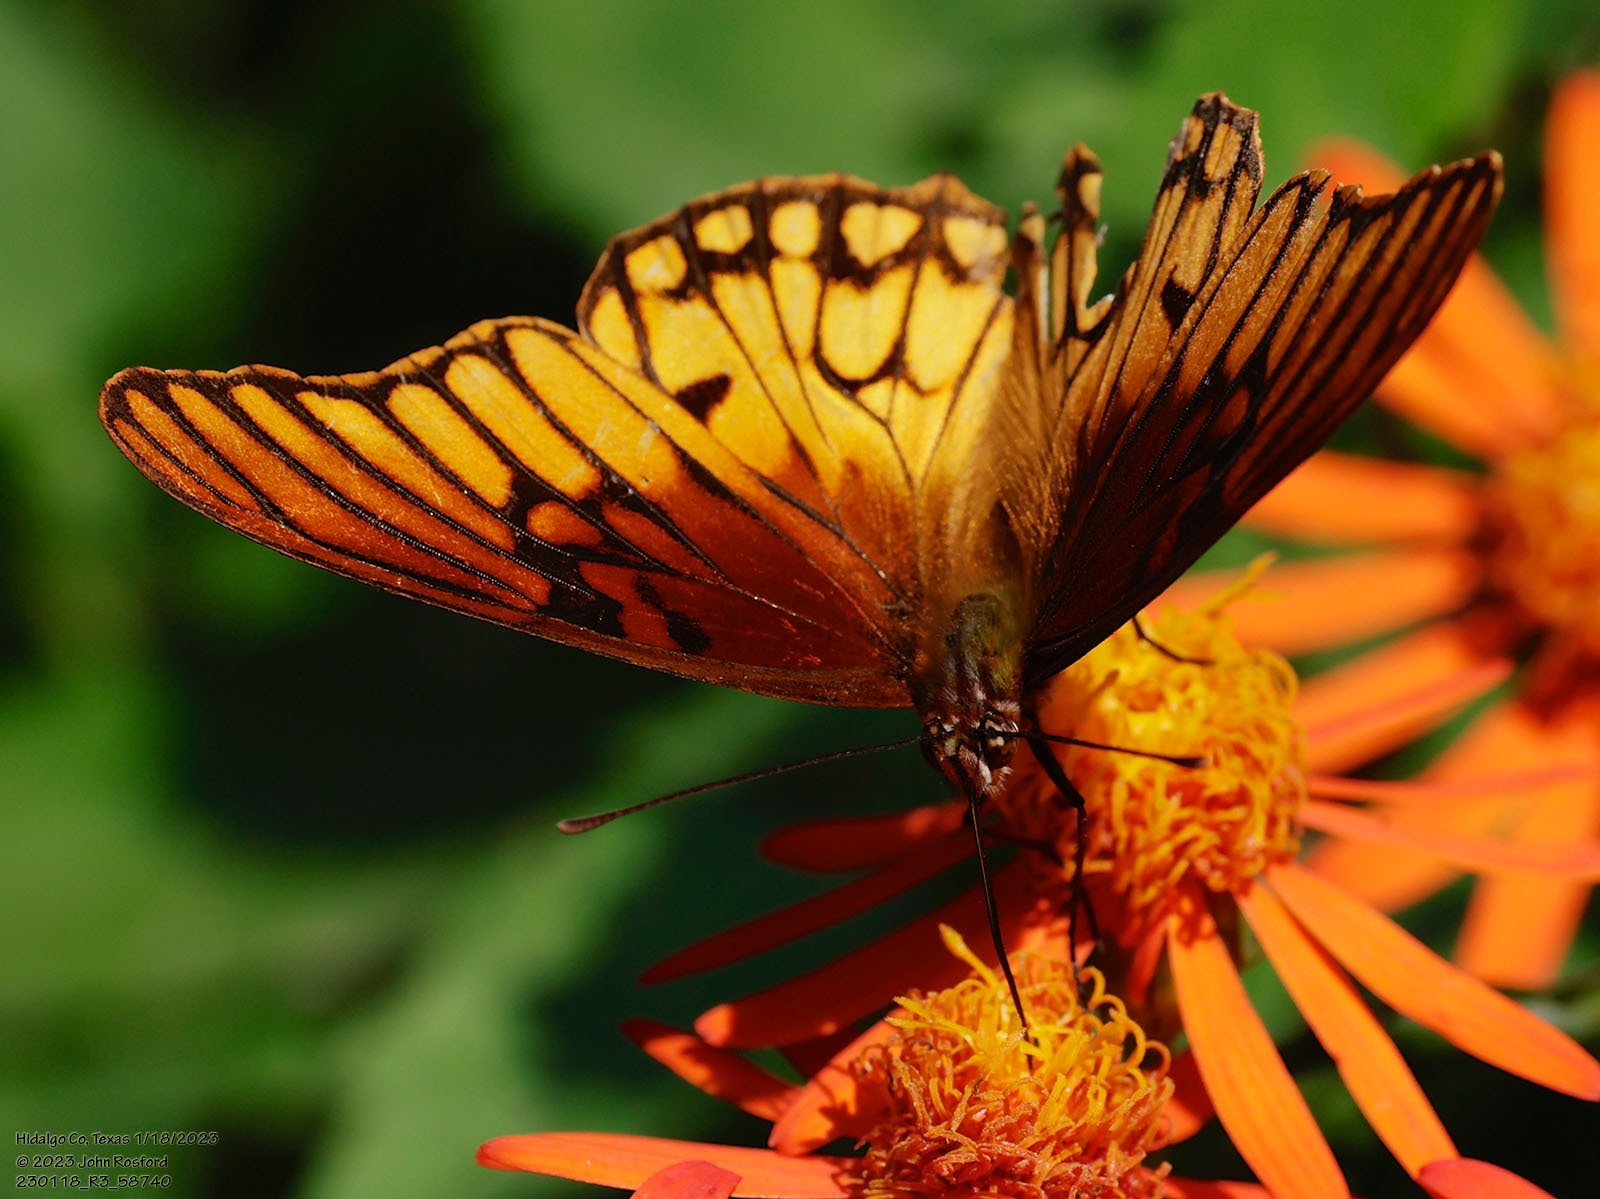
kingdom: Animalia
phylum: Arthropoda
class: Insecta
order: Lepidoptera
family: Nymphalidae
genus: Dione
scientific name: Dione moneta
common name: Mexican silverspot
